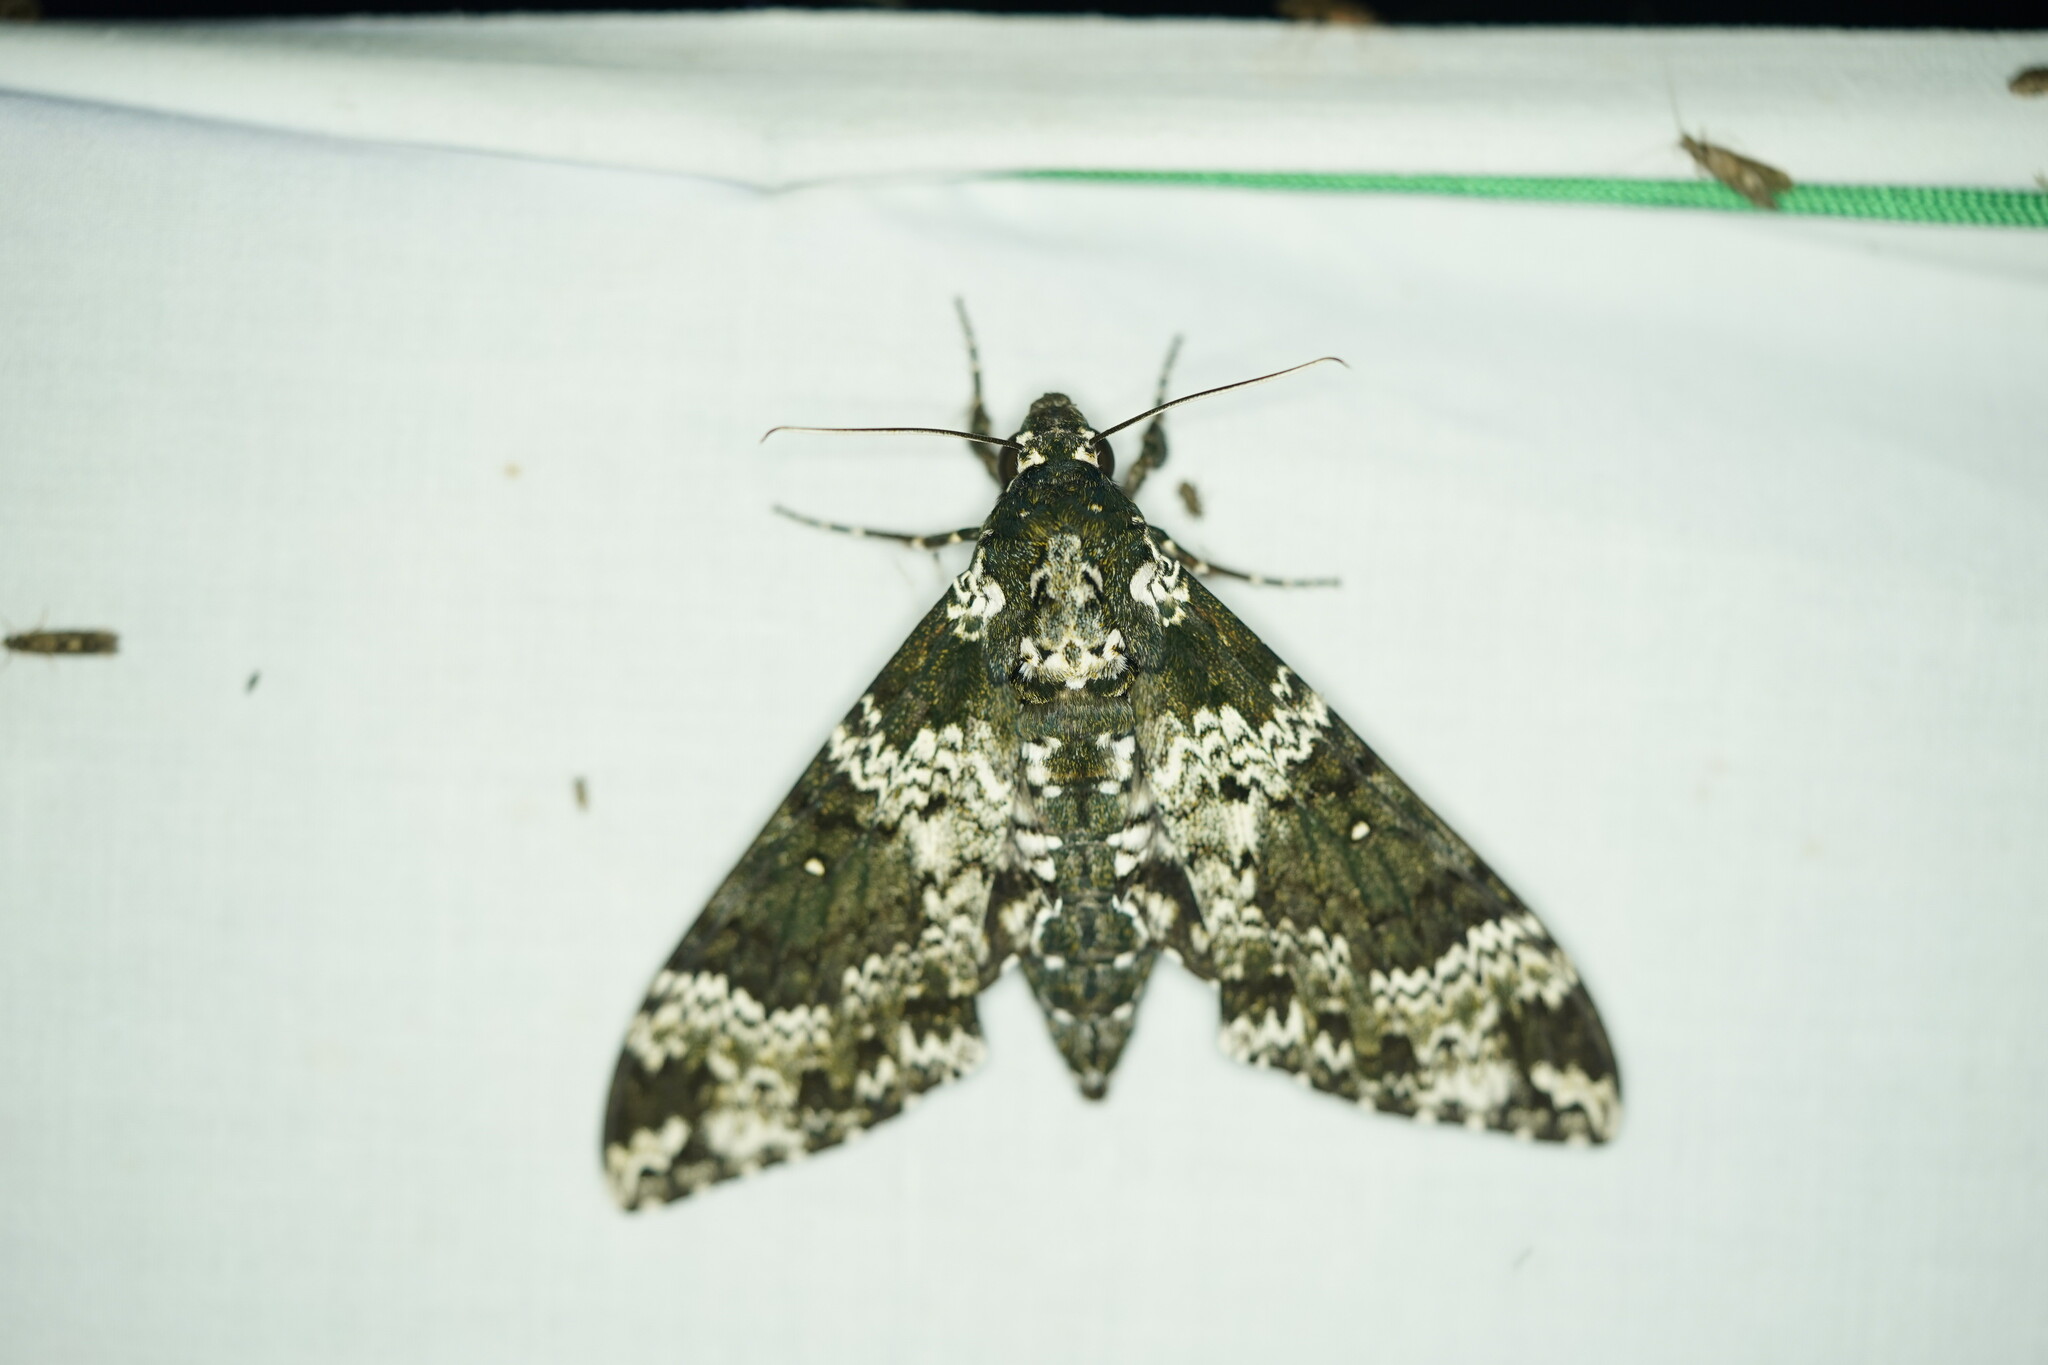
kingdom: Animalia
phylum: Arthropoda
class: Insecta
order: Lepidoptera
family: Sphingidae
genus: Manduca
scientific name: Manduca rustica
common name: Rustic sphinx
